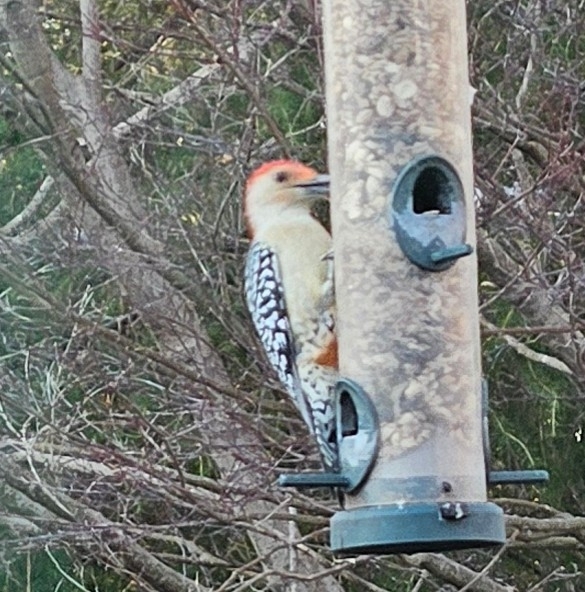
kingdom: Animalia
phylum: Chordata
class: Aves
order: Piciformes
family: Picidae
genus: Melanerpes
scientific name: Melanerpes carolinus
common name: Red-bellied woodpecker
